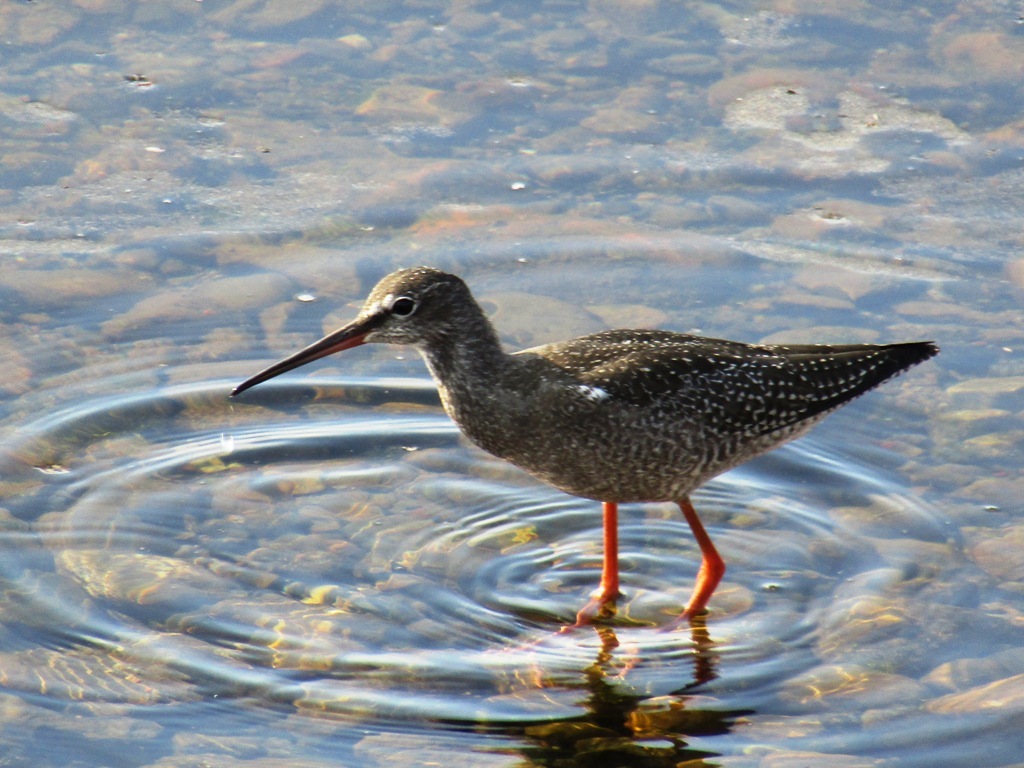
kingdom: Animalia
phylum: Chordata
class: Aves
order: Charadriiformes
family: Scolopacidae
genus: Tringa
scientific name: Tringa erythropus
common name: Spotted redshank
